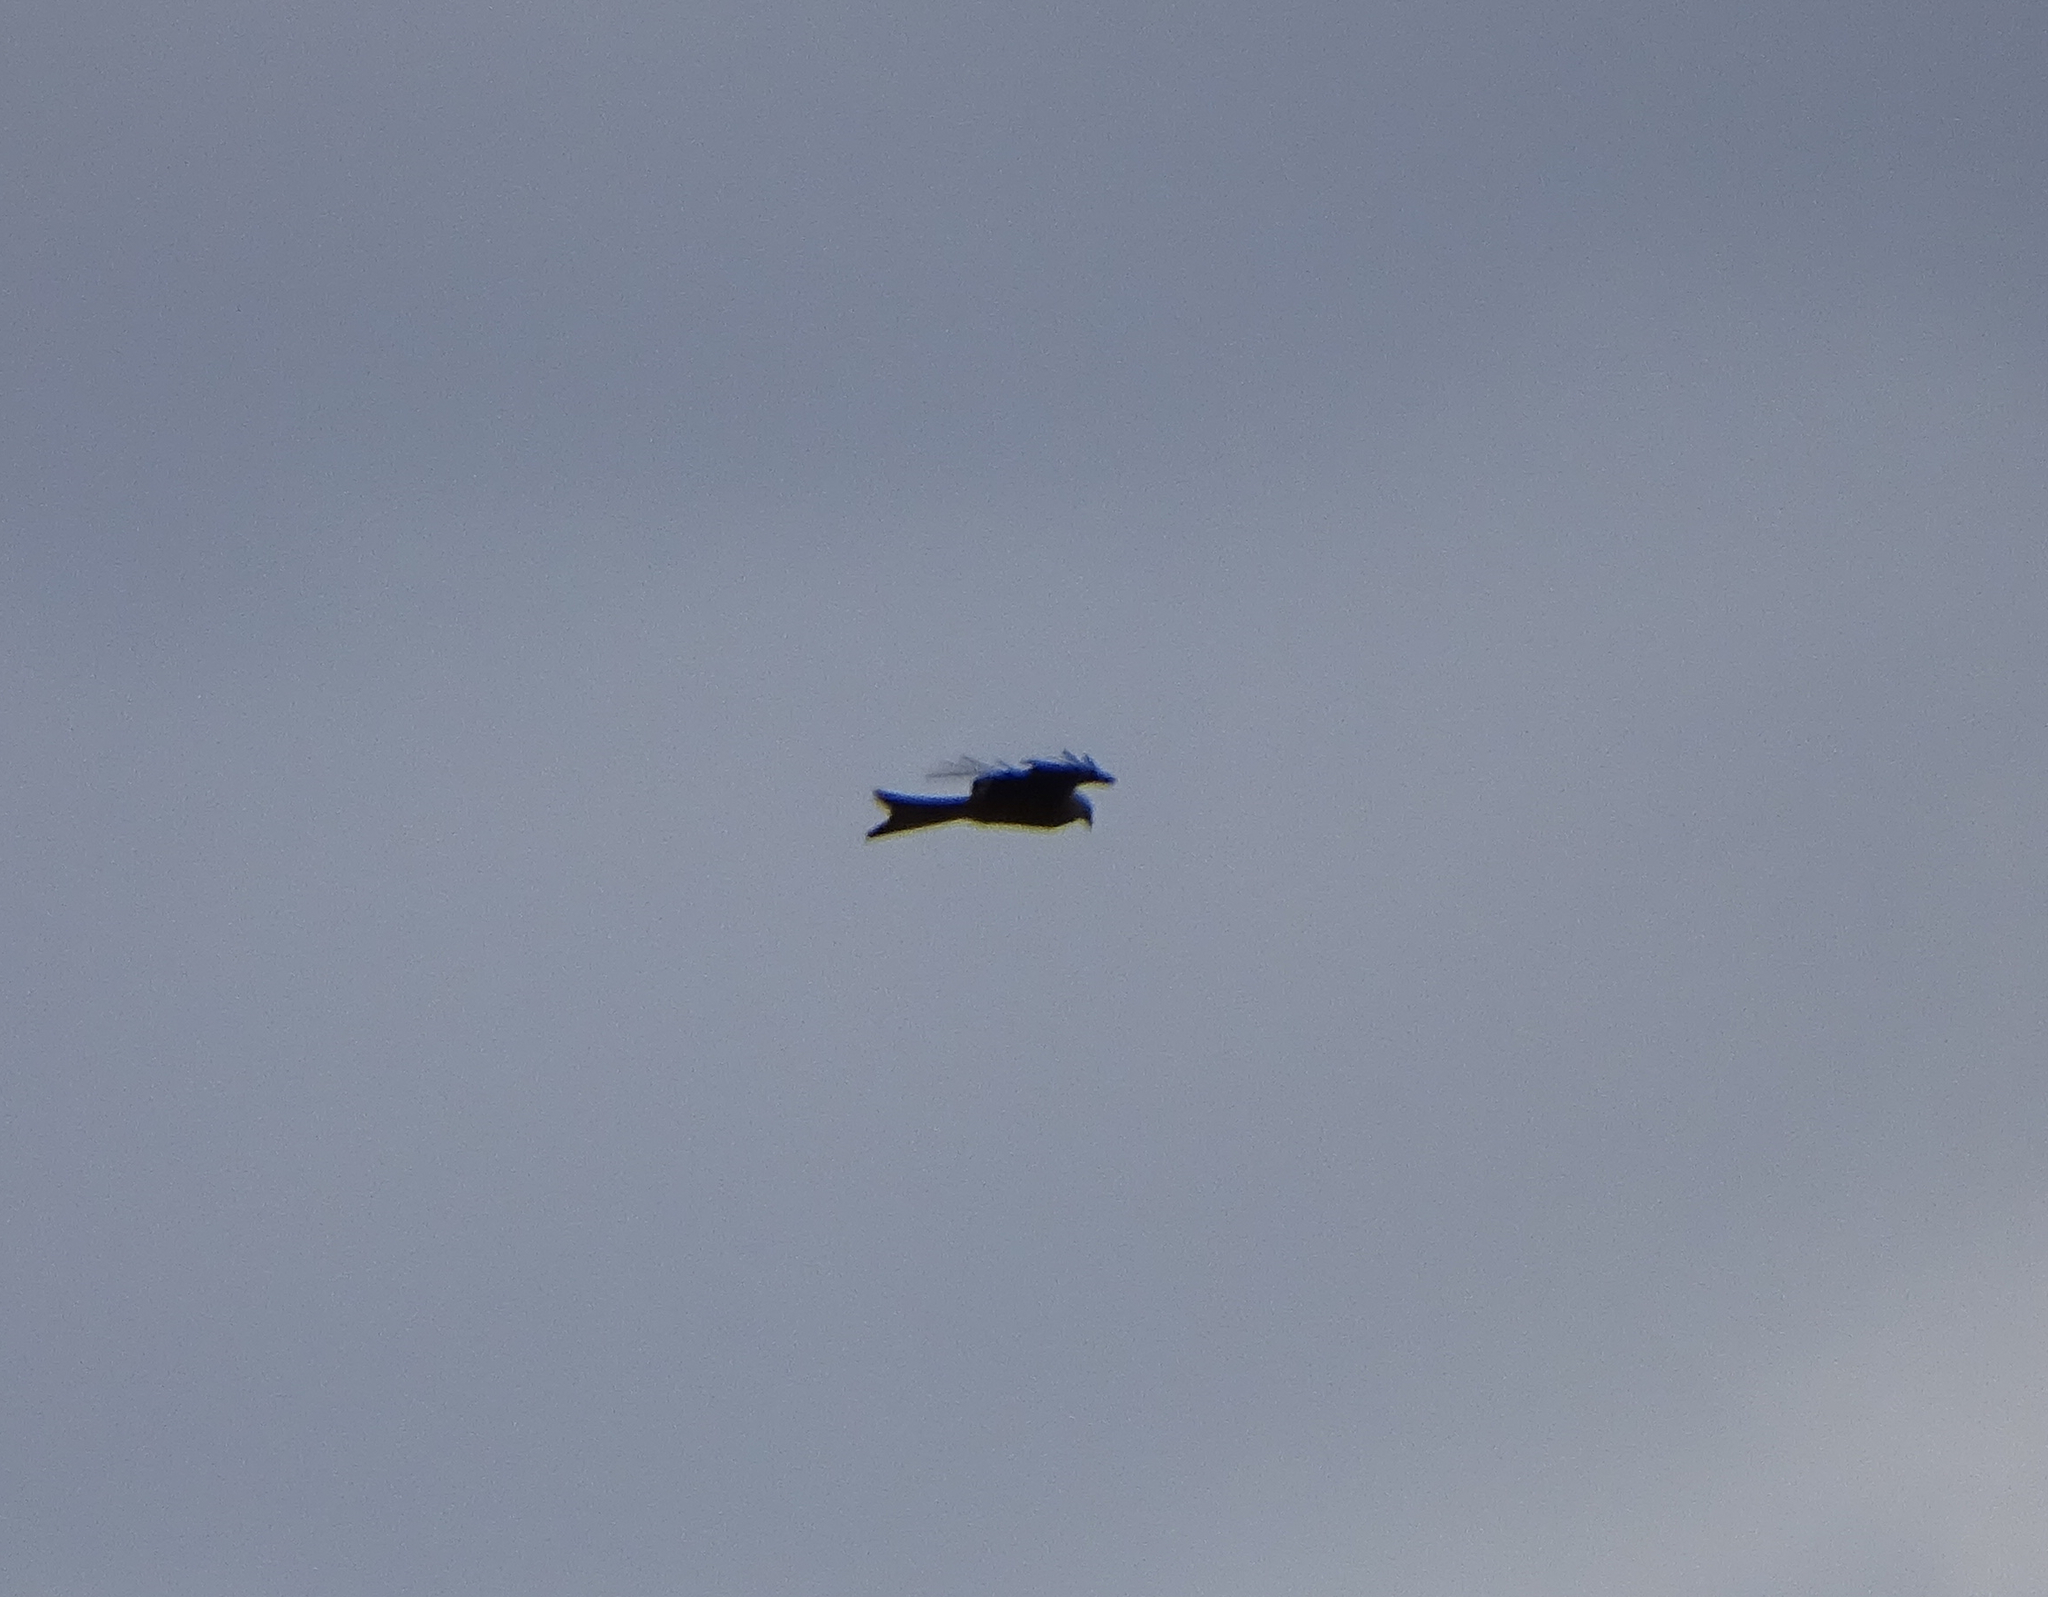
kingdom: Animalia
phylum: Chordata
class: Aves
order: Accipitriformes
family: Accipitridae
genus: Milvus
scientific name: Milvus milvus
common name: Red kite
